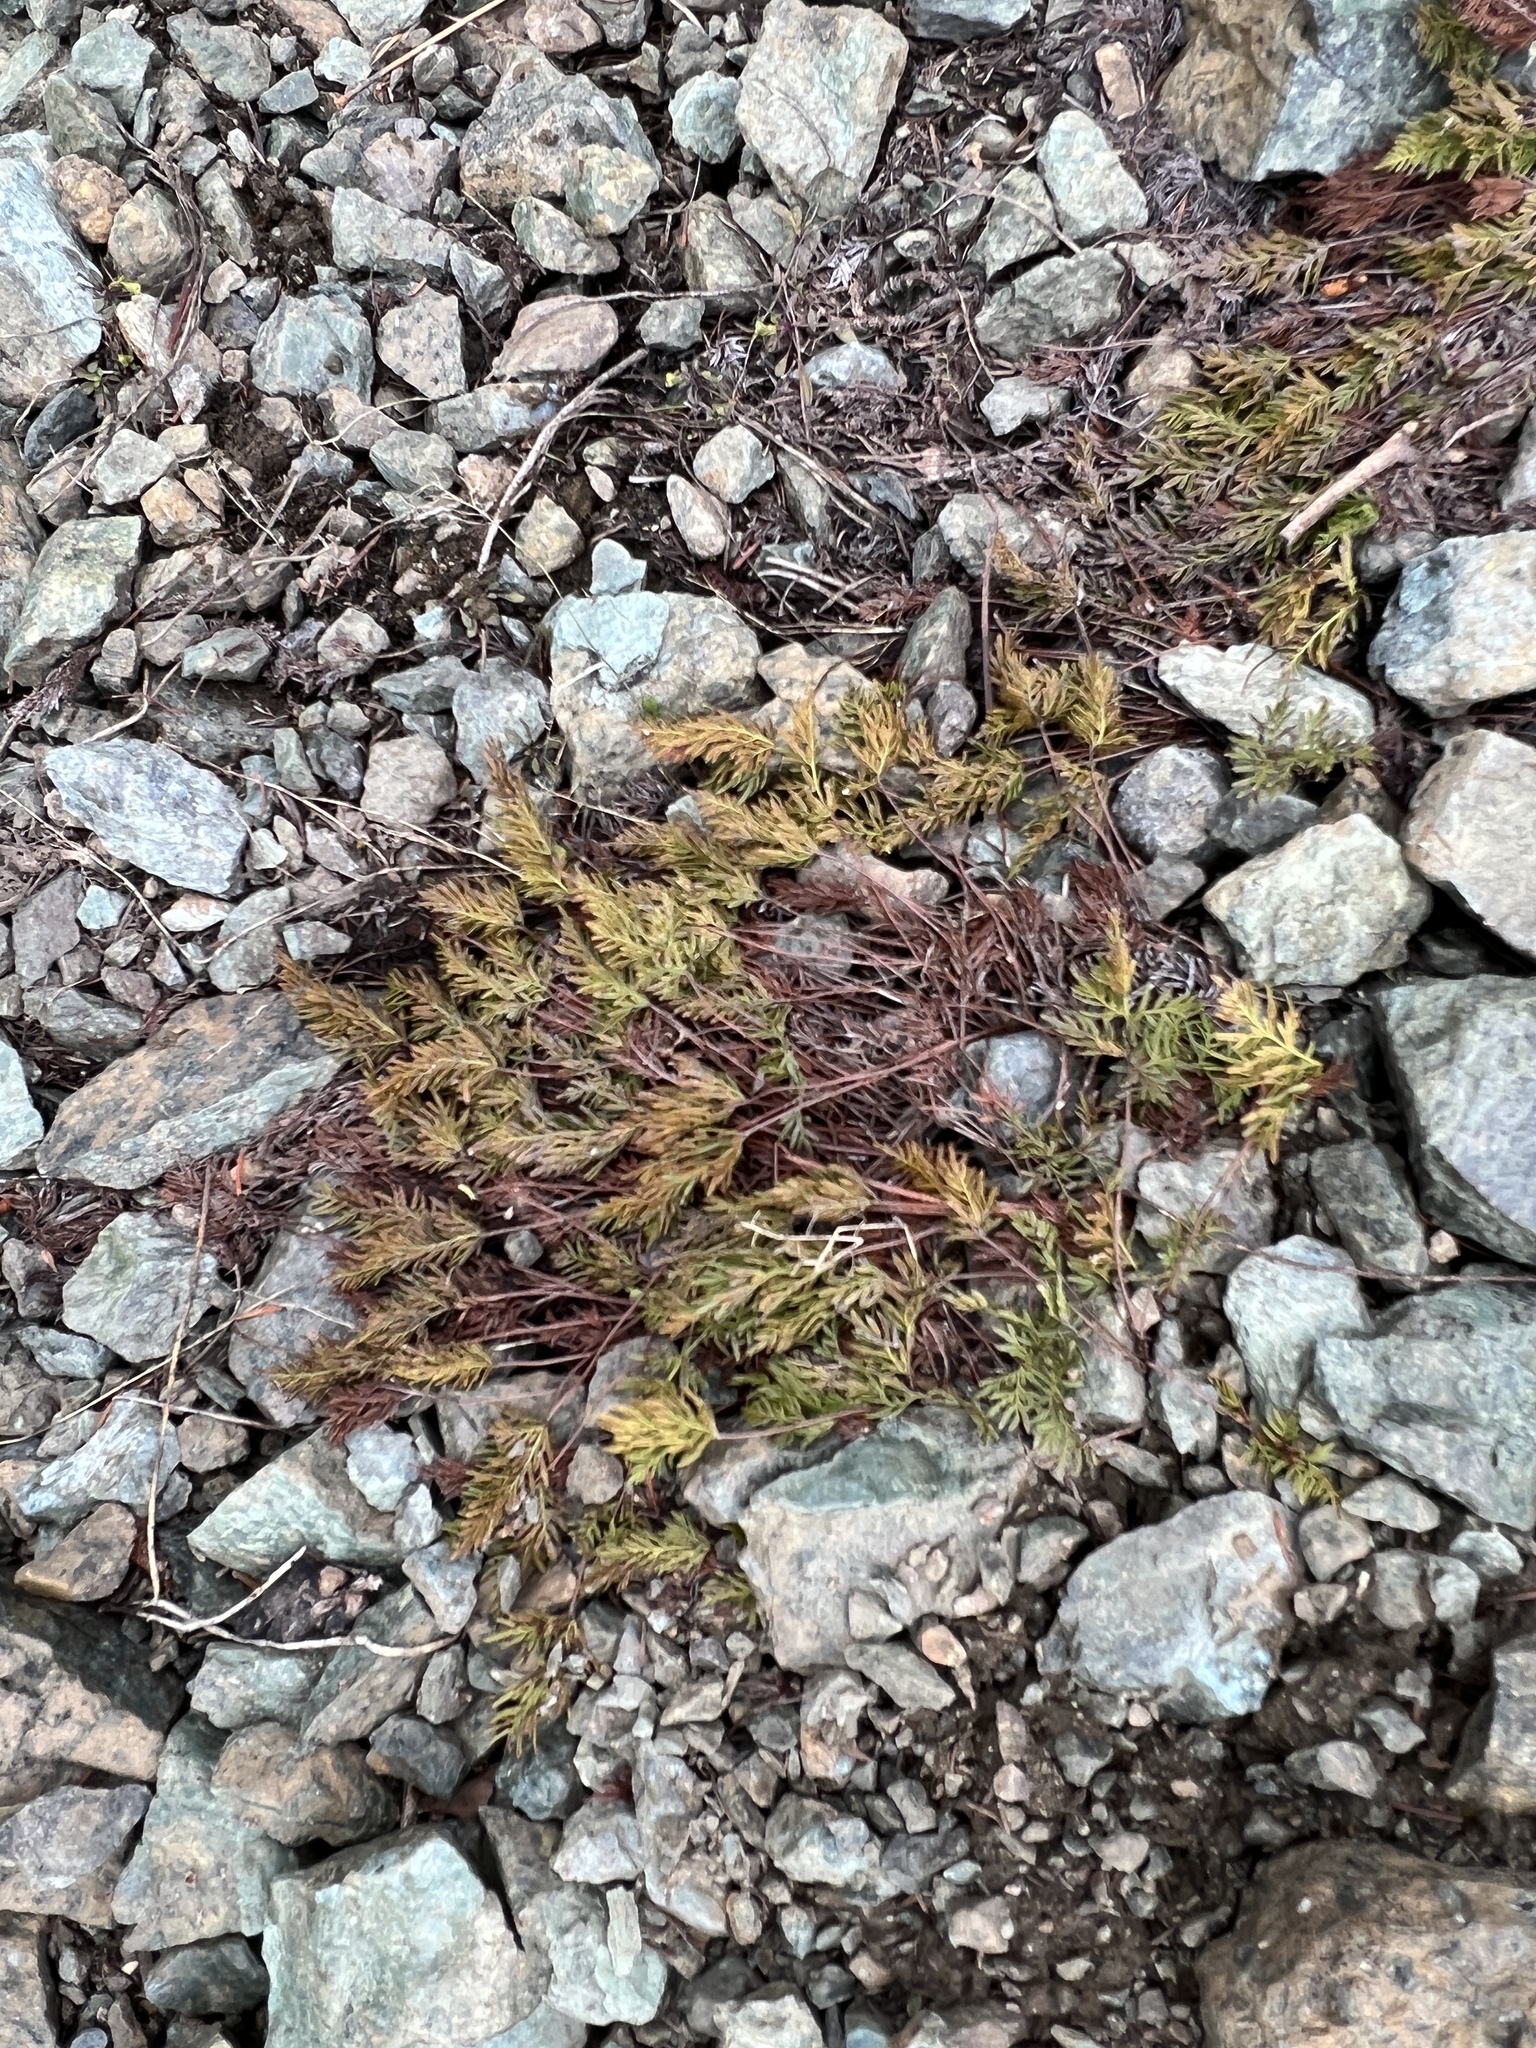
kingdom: Plantae
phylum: Tracheophyta
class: Polypodiopsida
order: Polypodiales
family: Pteridaceae
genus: Aspidotis
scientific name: Aspidotis densa
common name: Indian's dream
